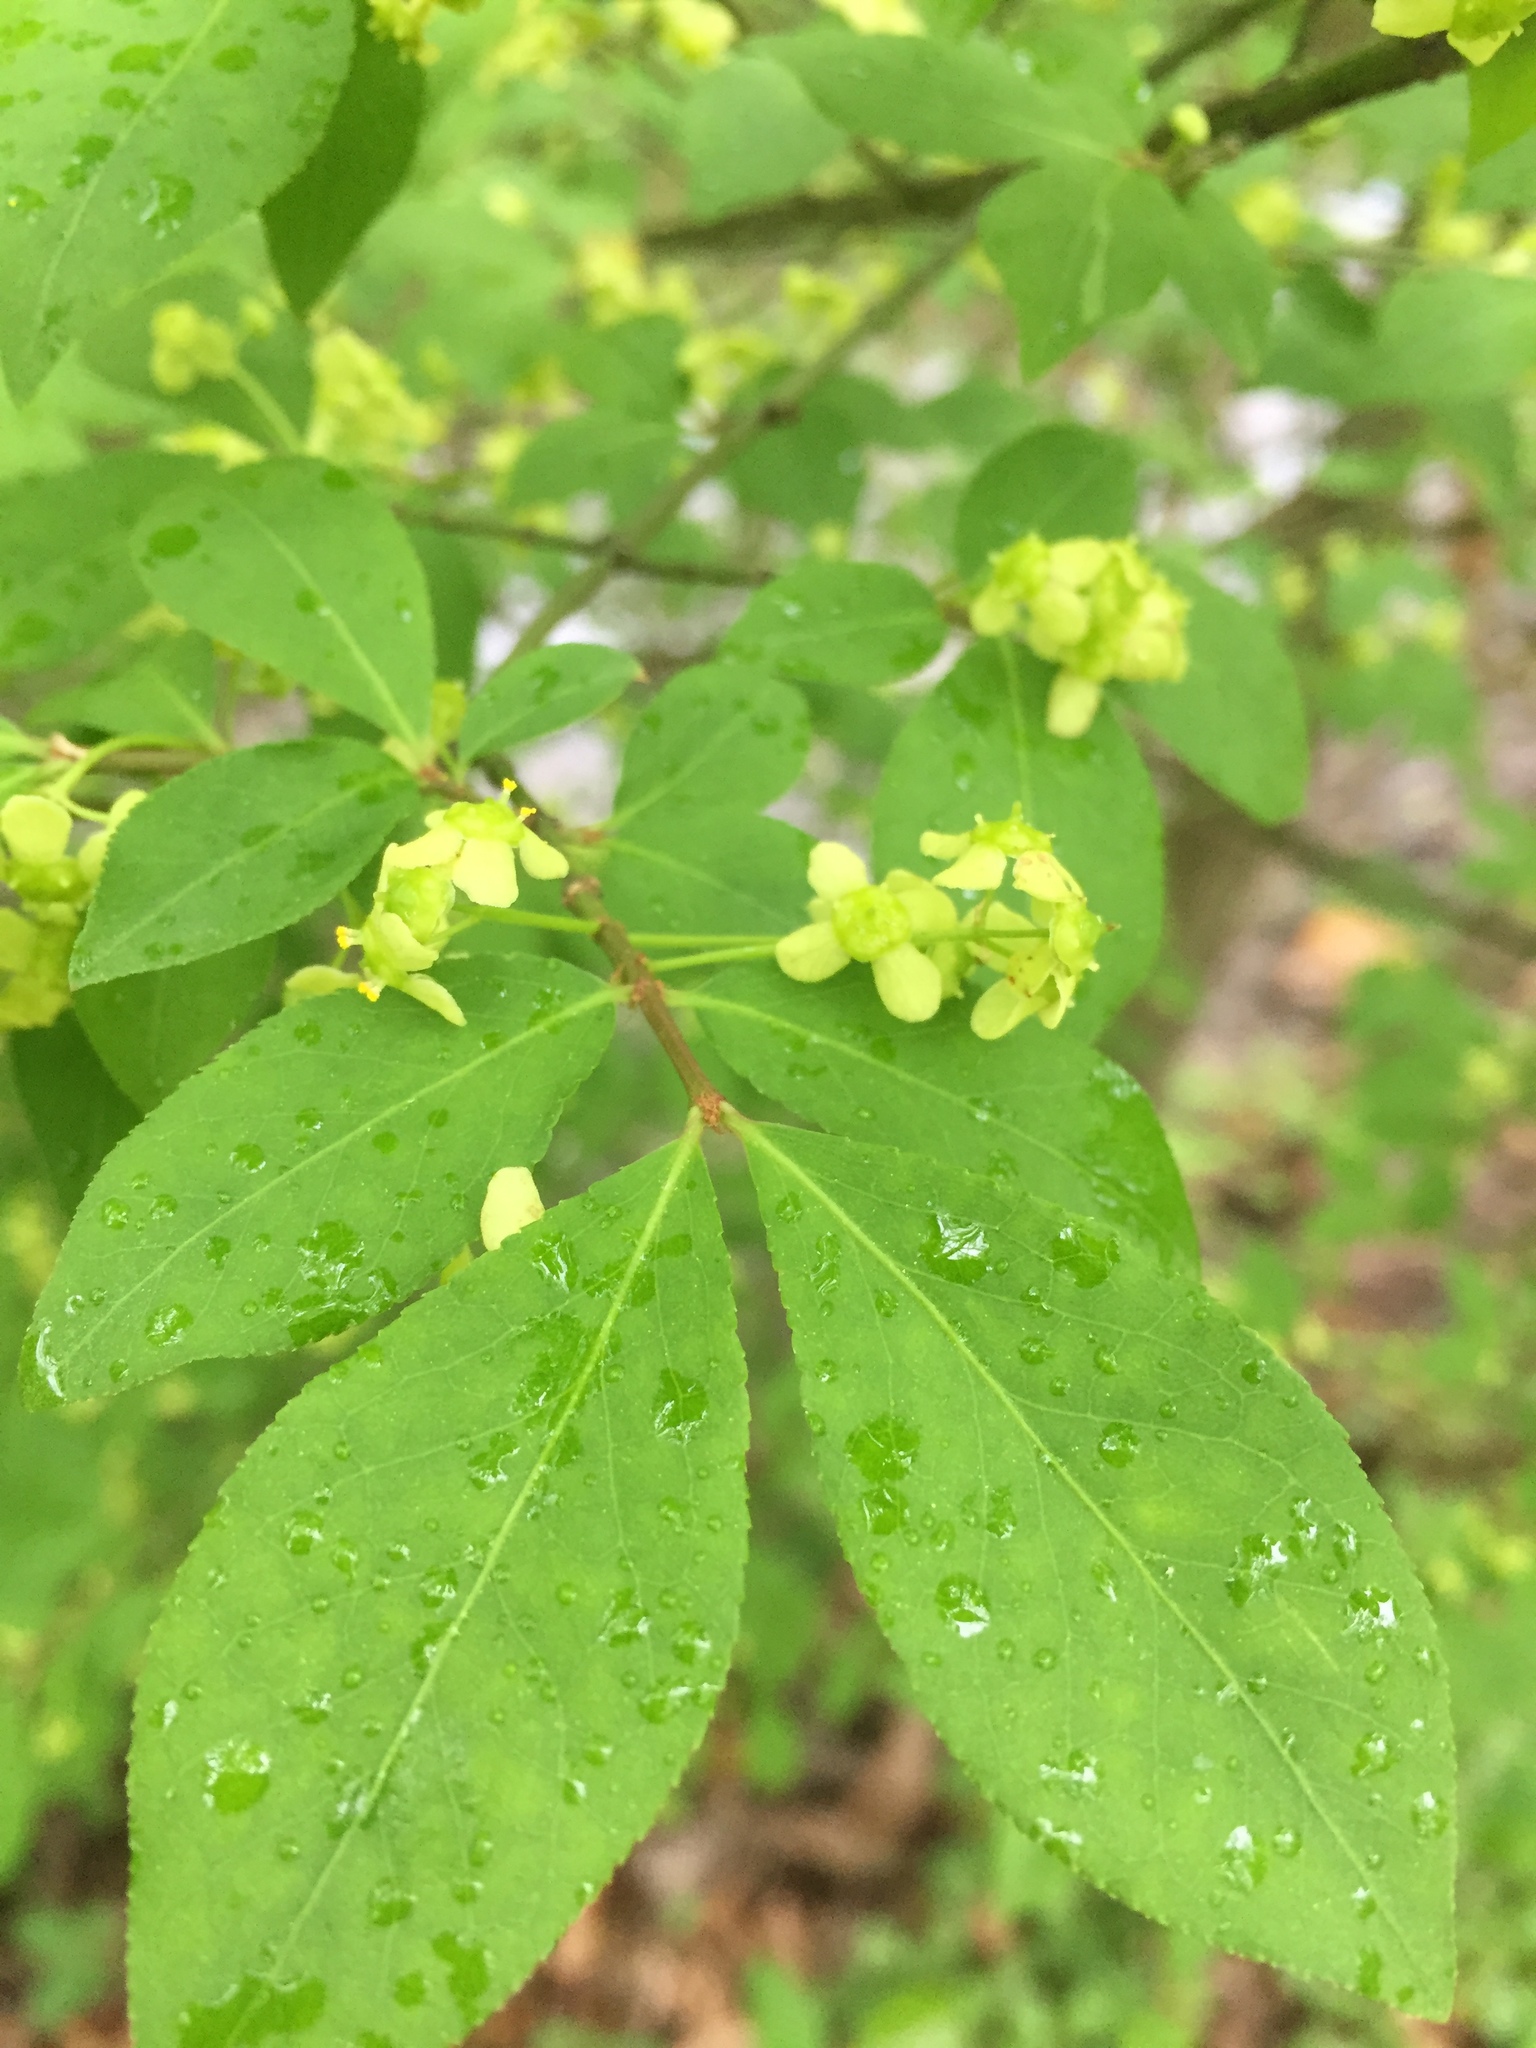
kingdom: Plantae
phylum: Tracheophyta
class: Magnoliopsida
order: Celastrales
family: Celastraceae
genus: Euonymus
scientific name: Euonymus alatus
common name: Winged euonymus
